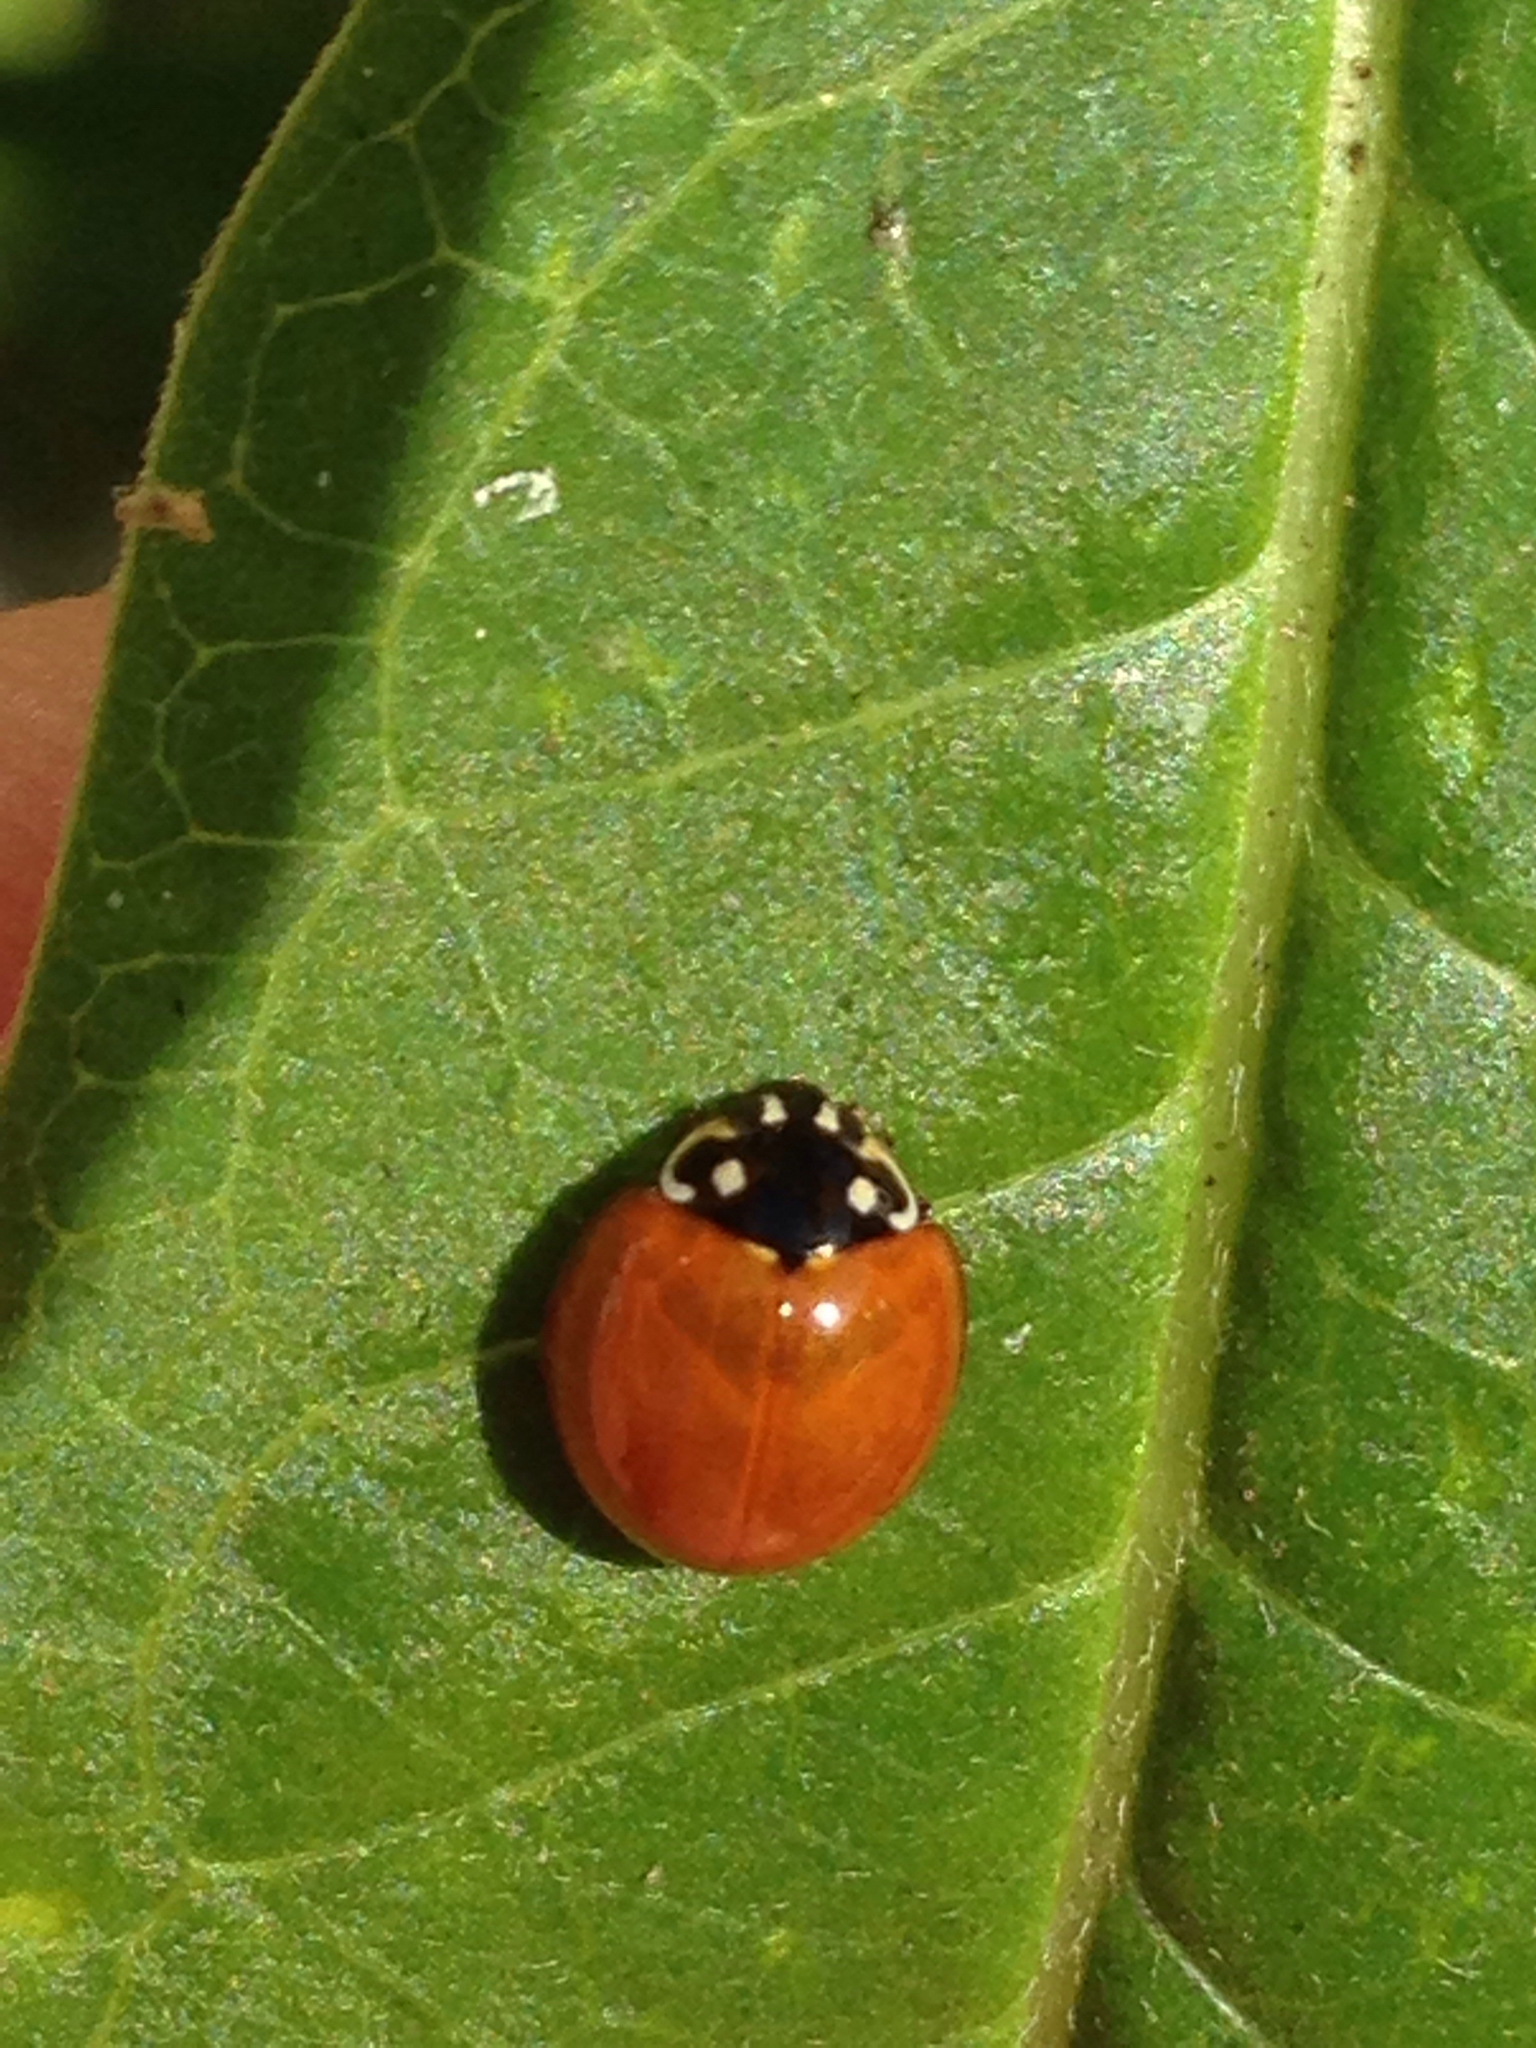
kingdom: Animalia
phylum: Arthropoda
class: Insecta
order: Coleoptera
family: Coccinellidae
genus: Cycloneda
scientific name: Cycloneda sanguinea
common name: Ladybird beetle
